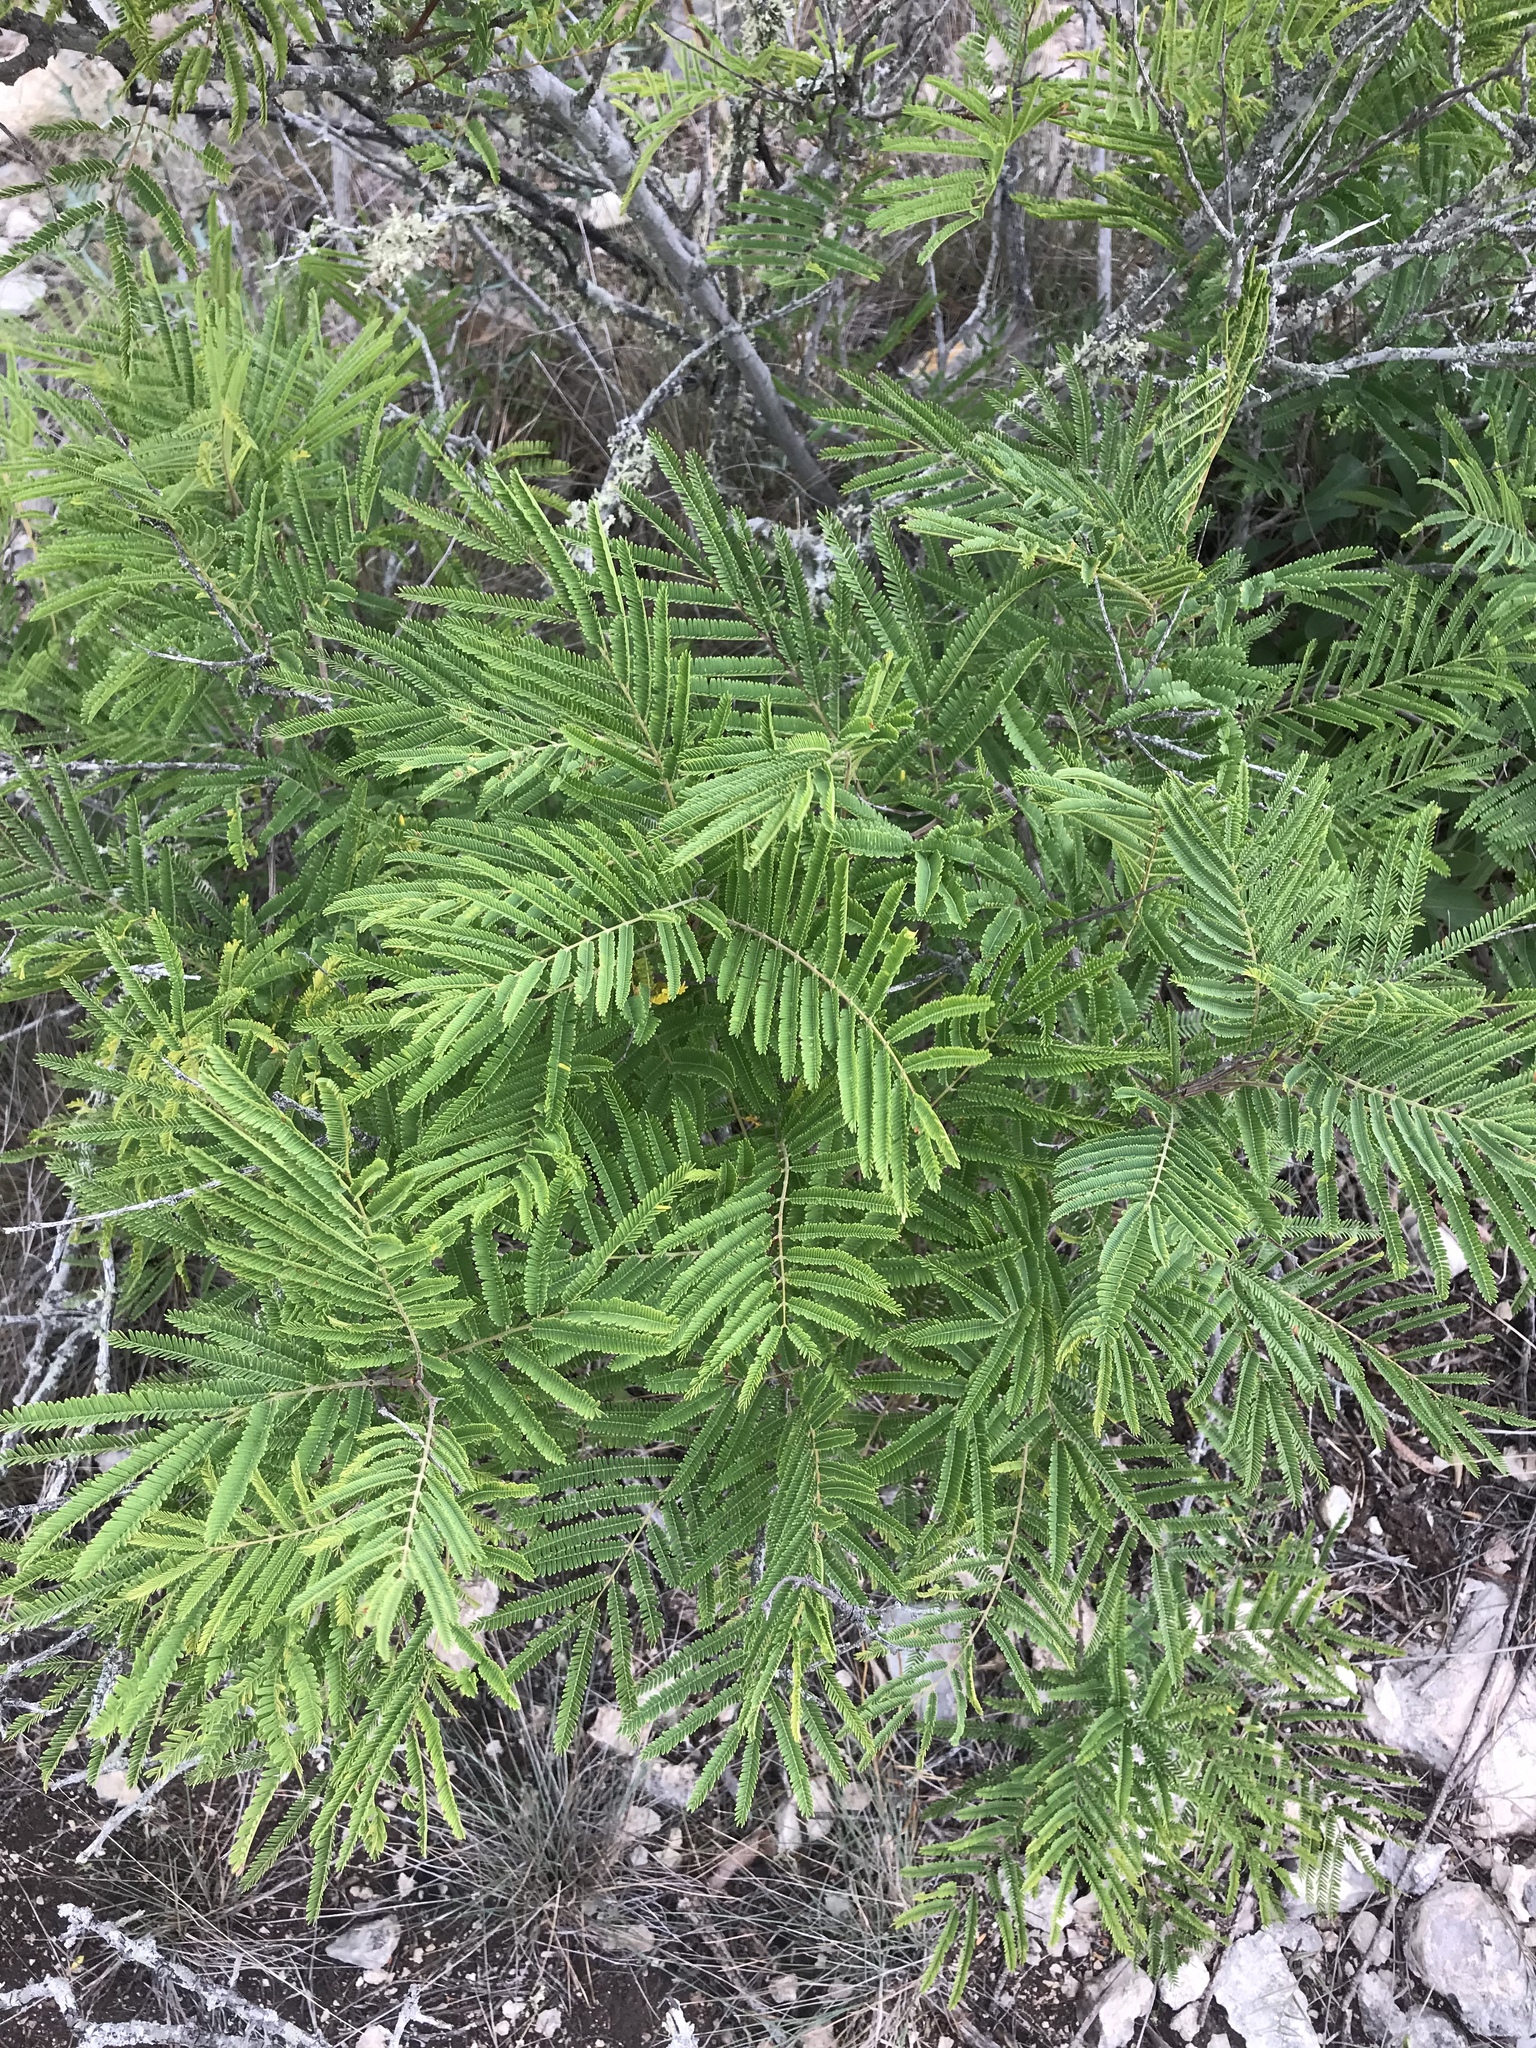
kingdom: Plantae
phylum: Tracheophyta
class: Magnoliopsida
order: Fabales
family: Fabaceae
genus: Senegalia
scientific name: Senegalia berlandieri
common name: Berlandier acacia
